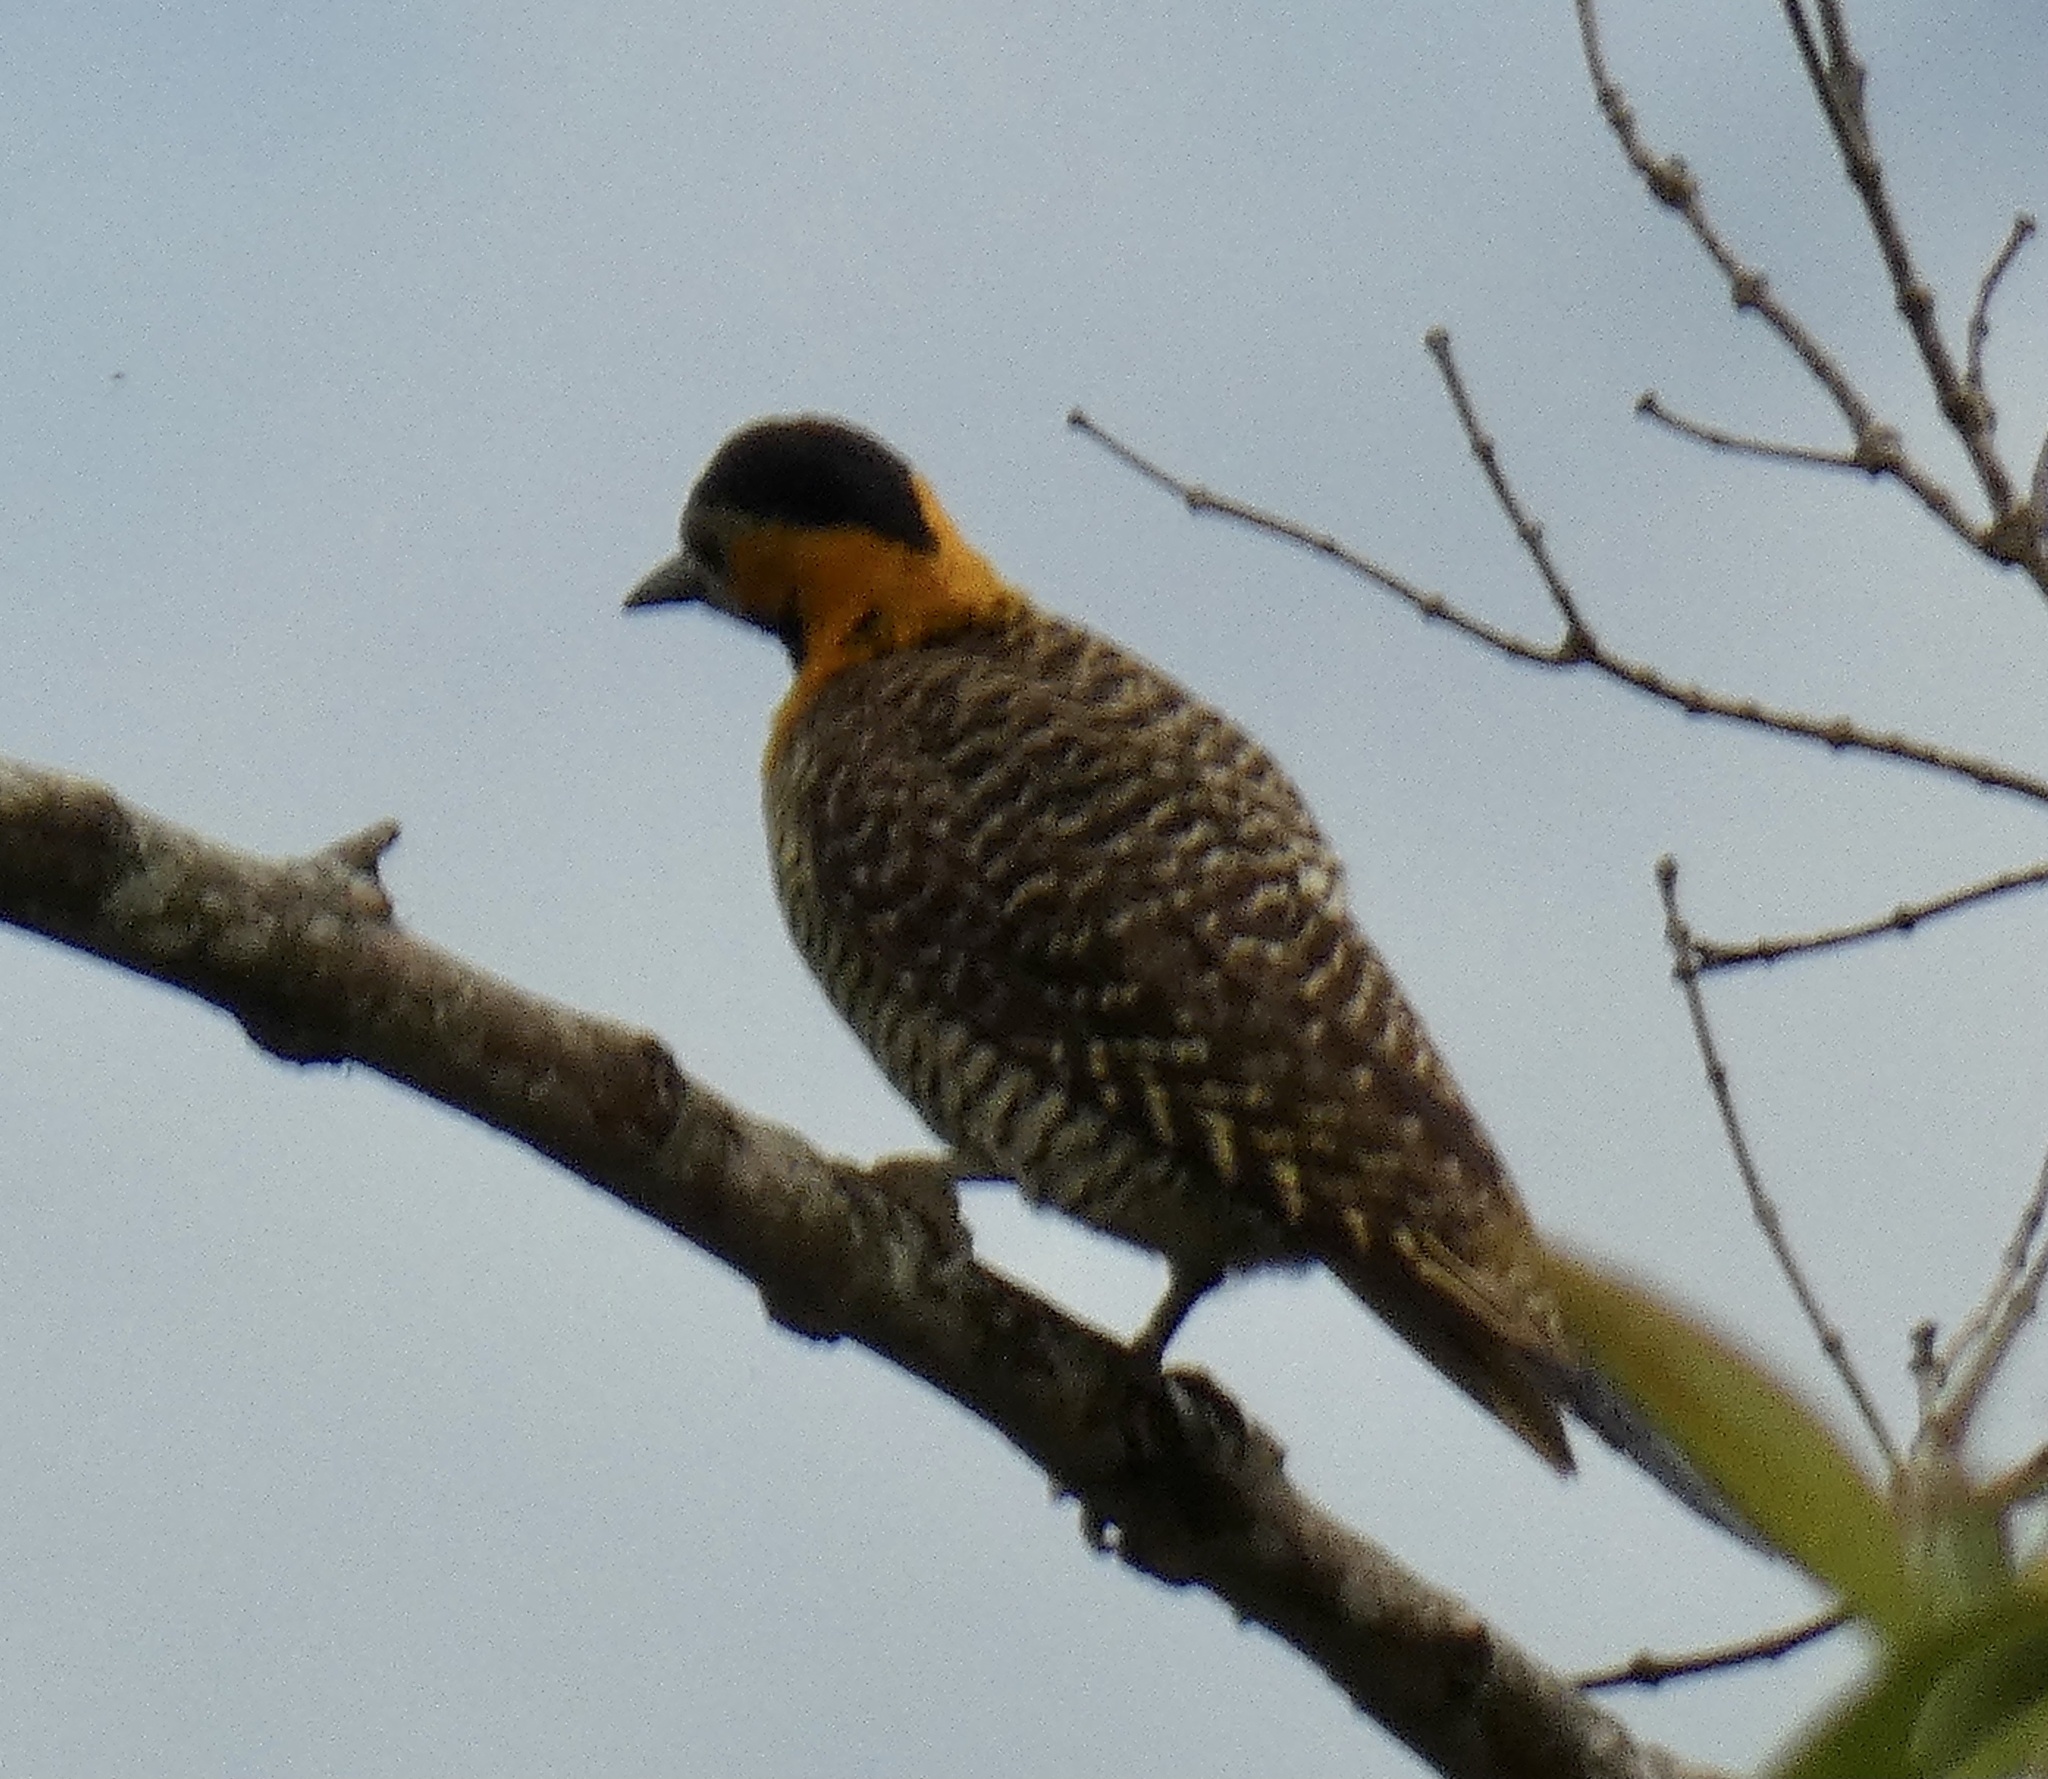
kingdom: Animalia
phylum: Chordata
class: Aves
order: Piciformes
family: Picidae
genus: Colaptes
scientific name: Colaptes campestris
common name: Campo flicker
